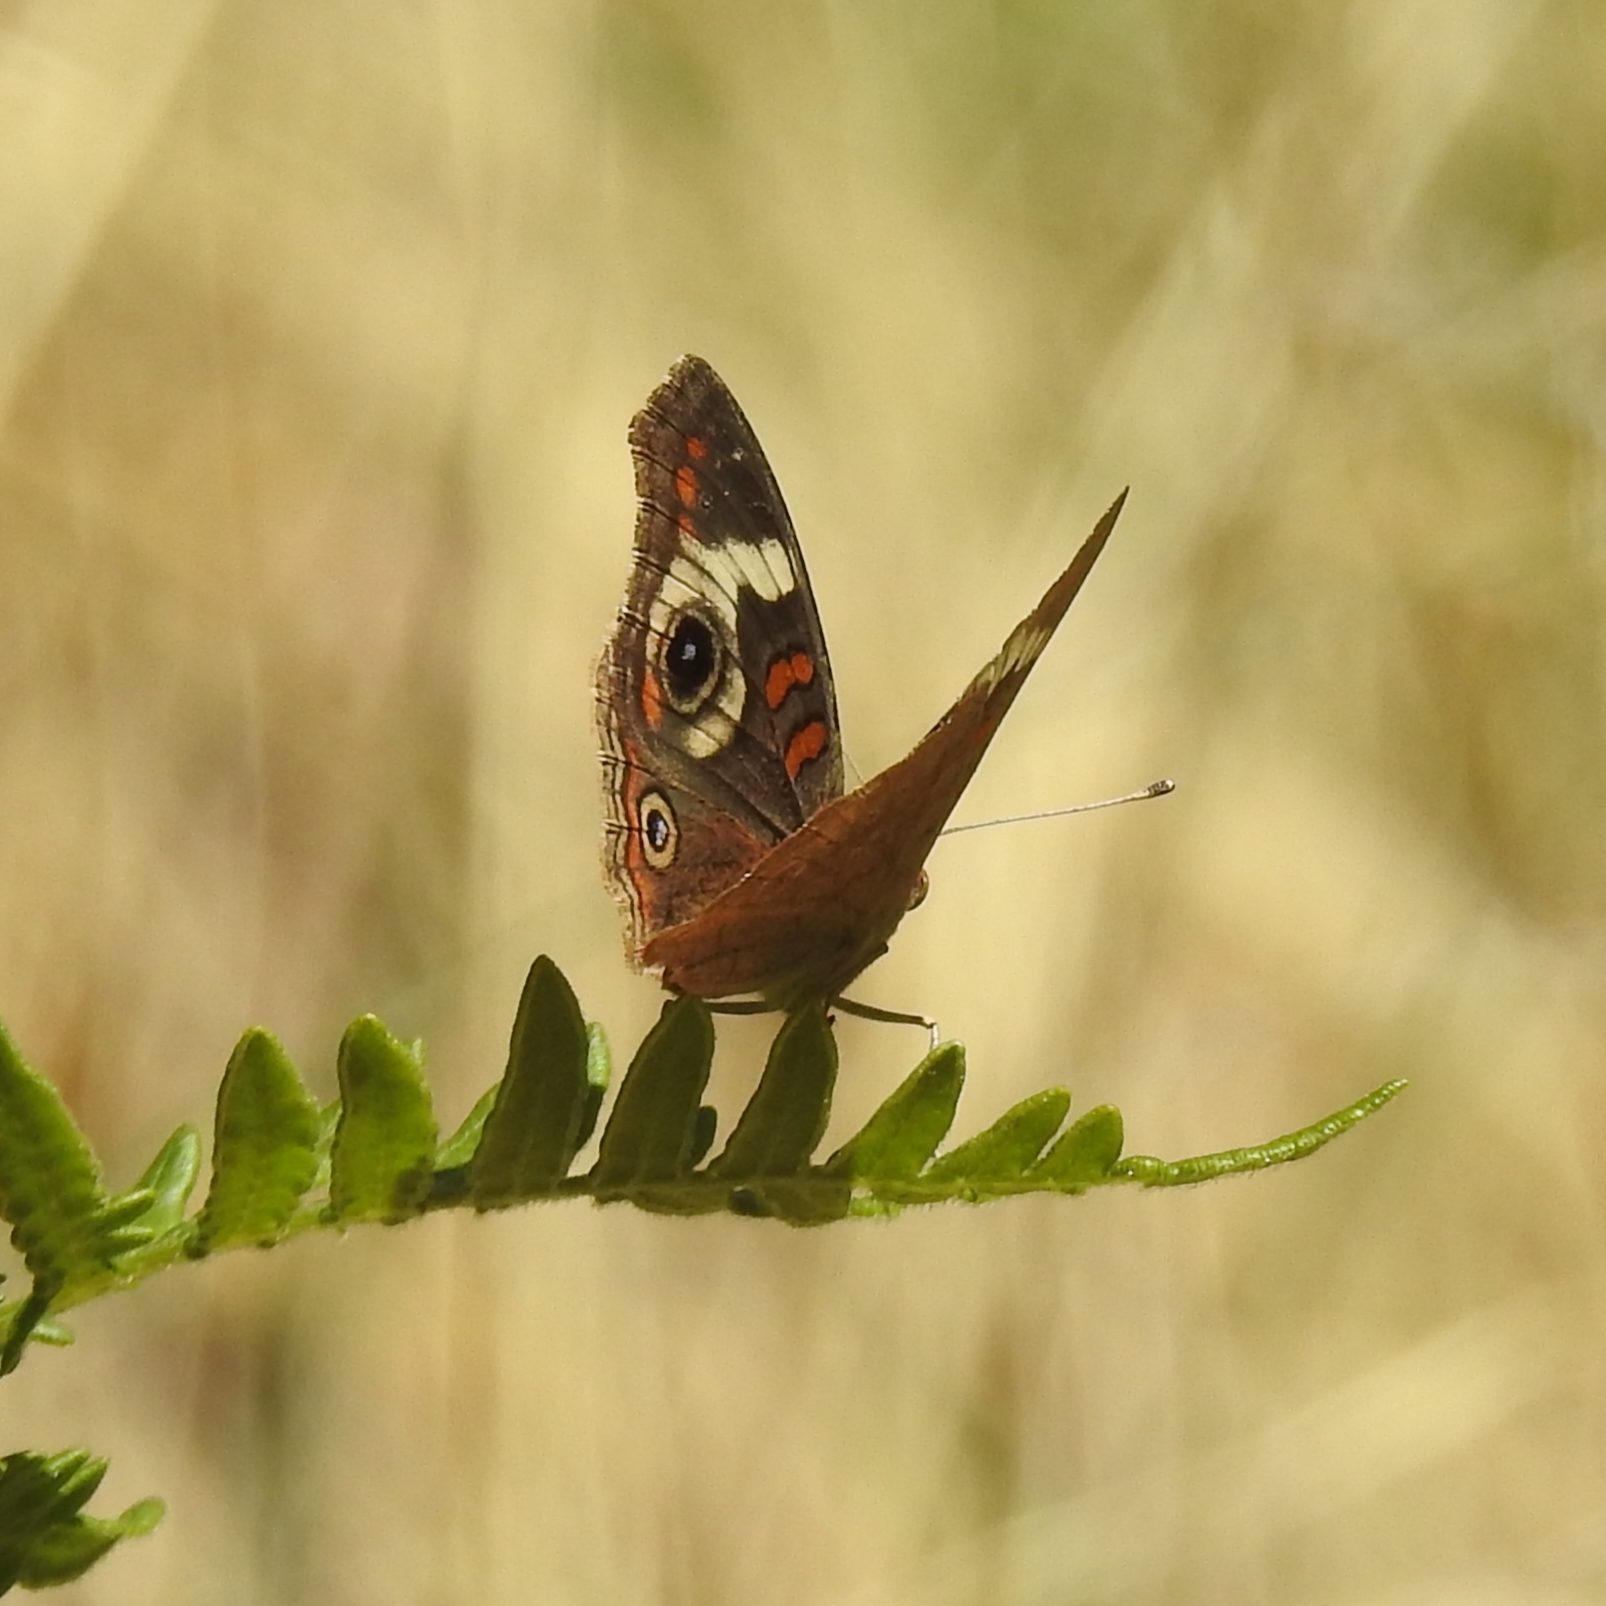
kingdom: Animalia
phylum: Arthropoda
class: Insecta
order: Lepidoptera
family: Nymphalidae
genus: Junonia
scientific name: Junonia grisea
